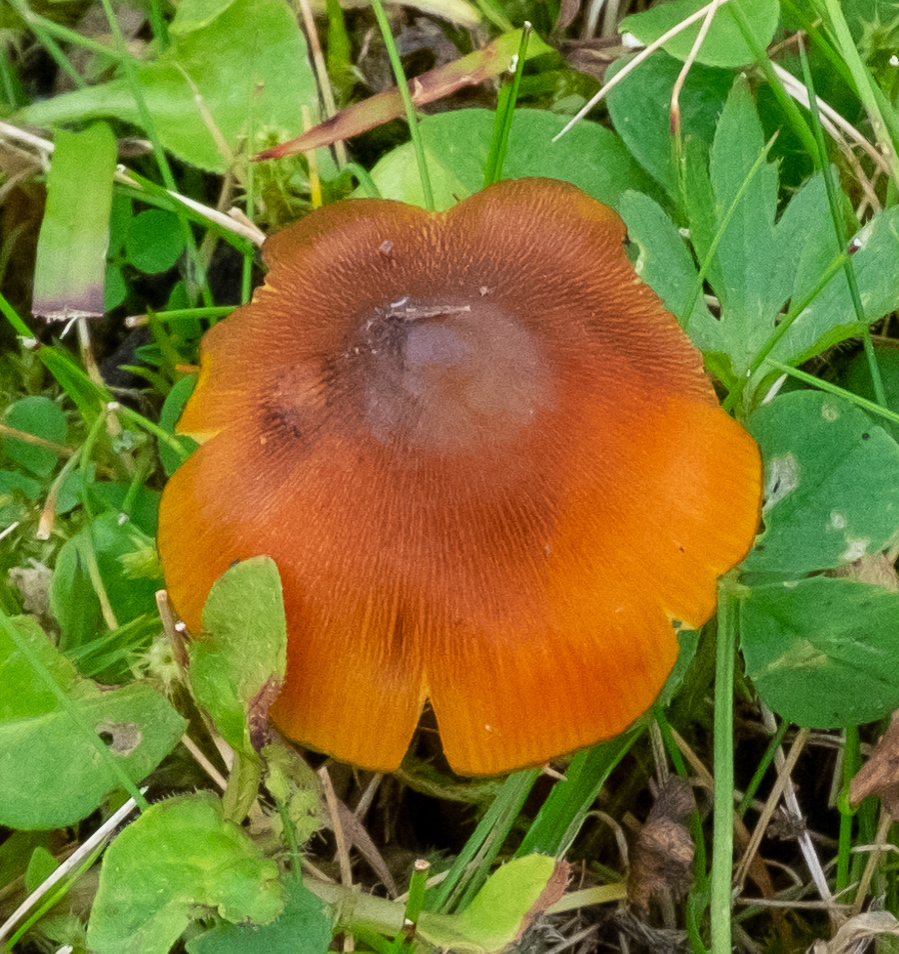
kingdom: Fungi
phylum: Basidiomycota
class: Agaricomycetes
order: Agaricales
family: Hygrophoraceae
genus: Hygrocybe
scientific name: Hygrocybe conica
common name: Blackening wax-cap
